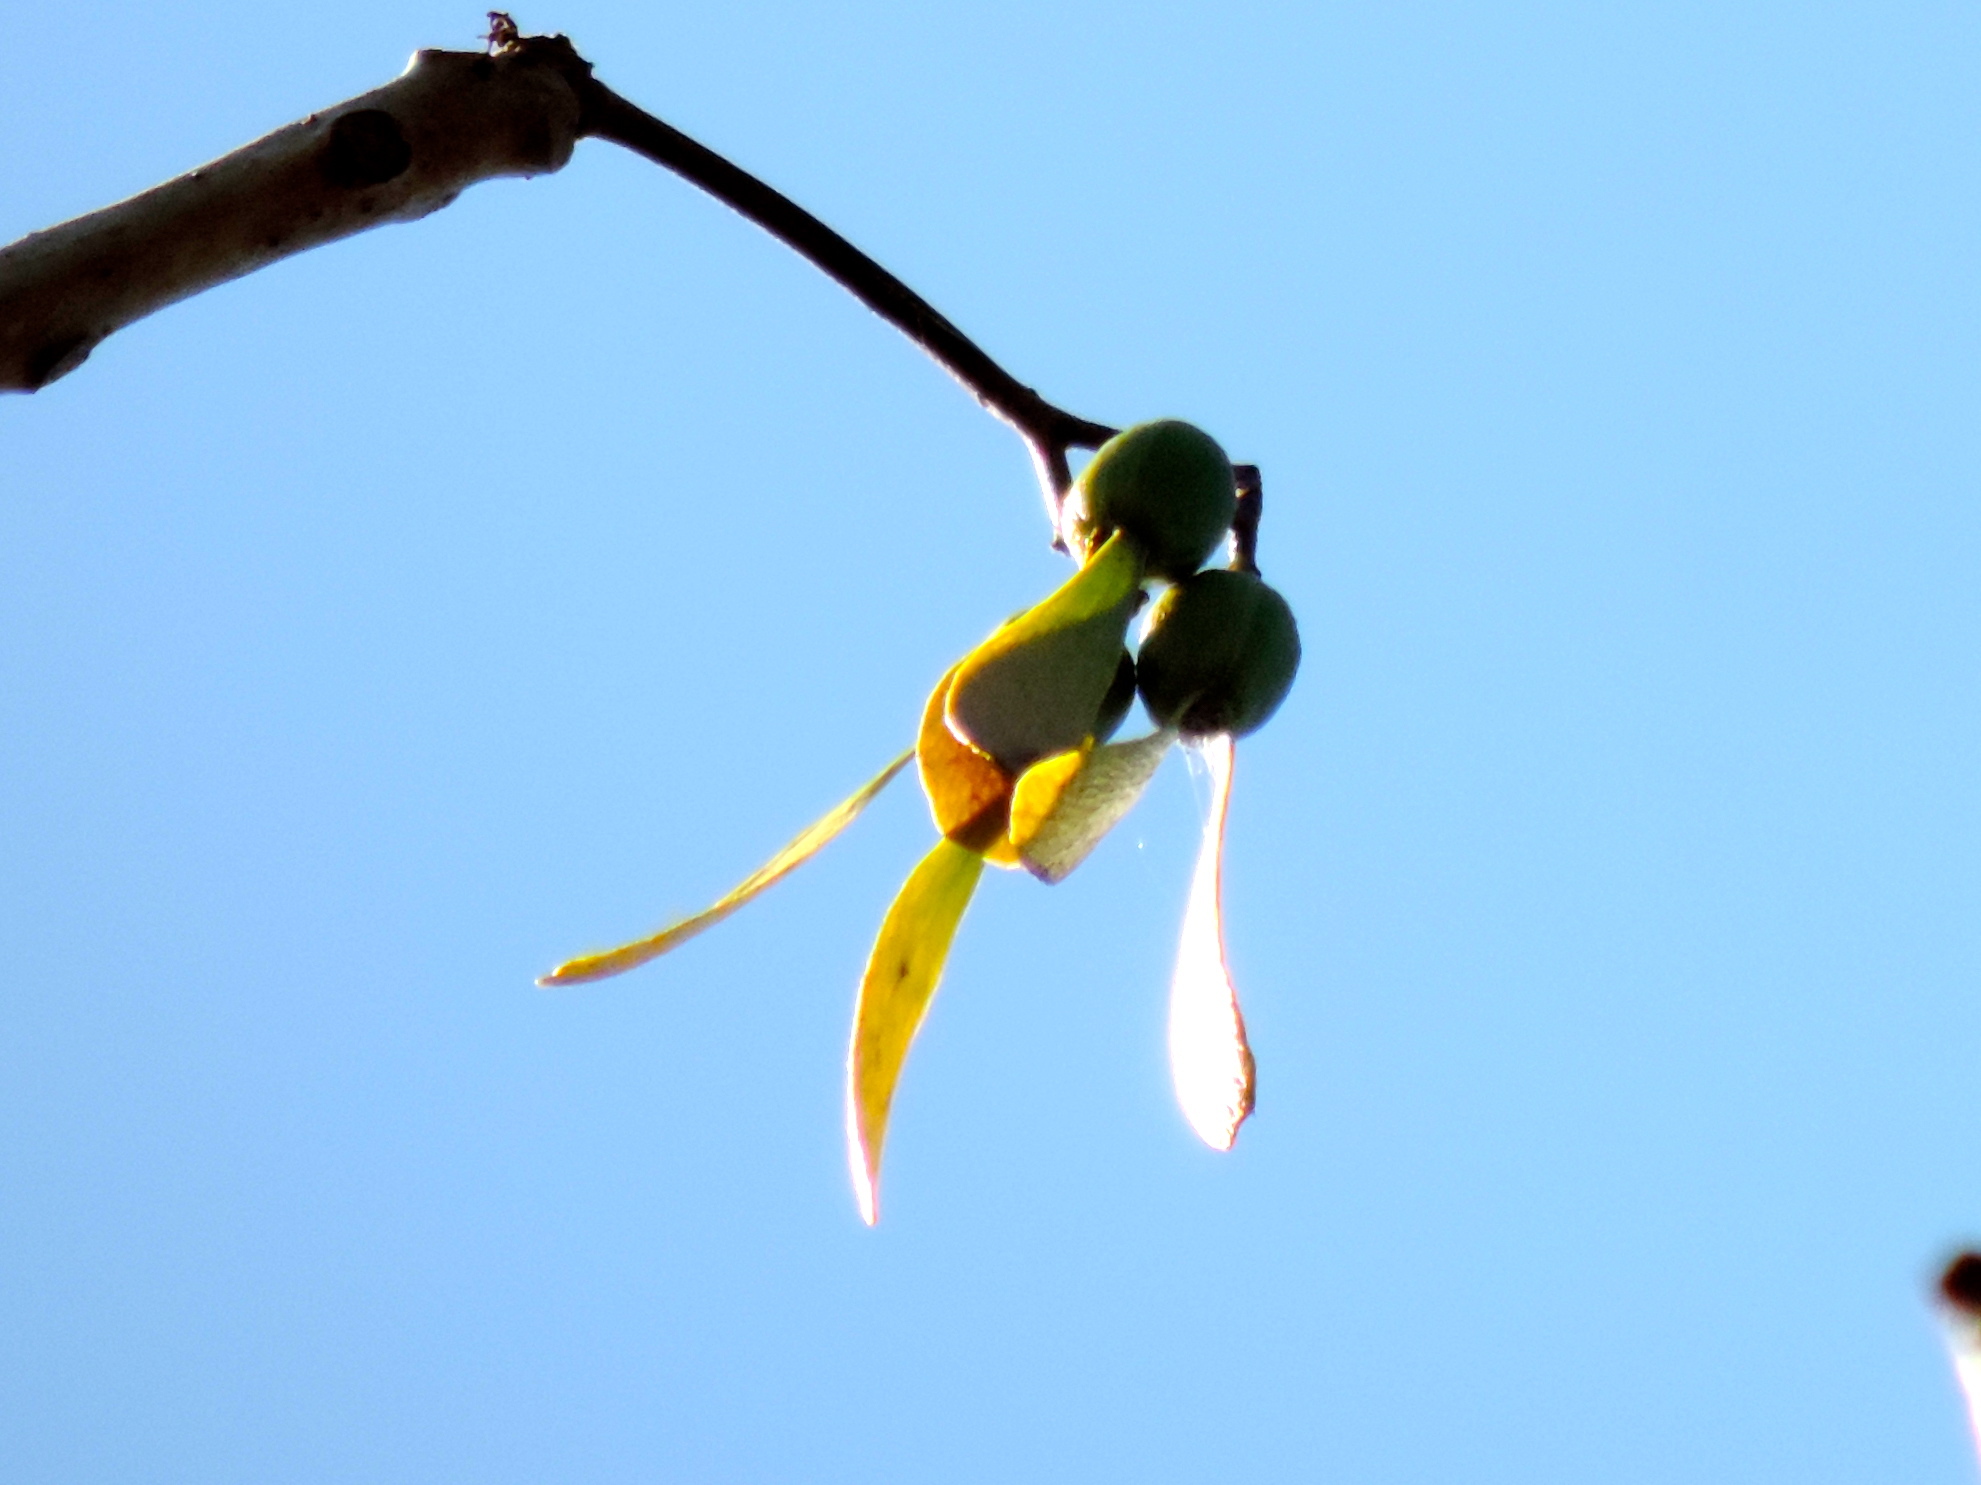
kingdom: Plantae
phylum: Tracheophyta
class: Magnoliopsida
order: Laurales
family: Hernandiaceae
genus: Gyrocarpus
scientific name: Gyrocarpus jatrophifolius
